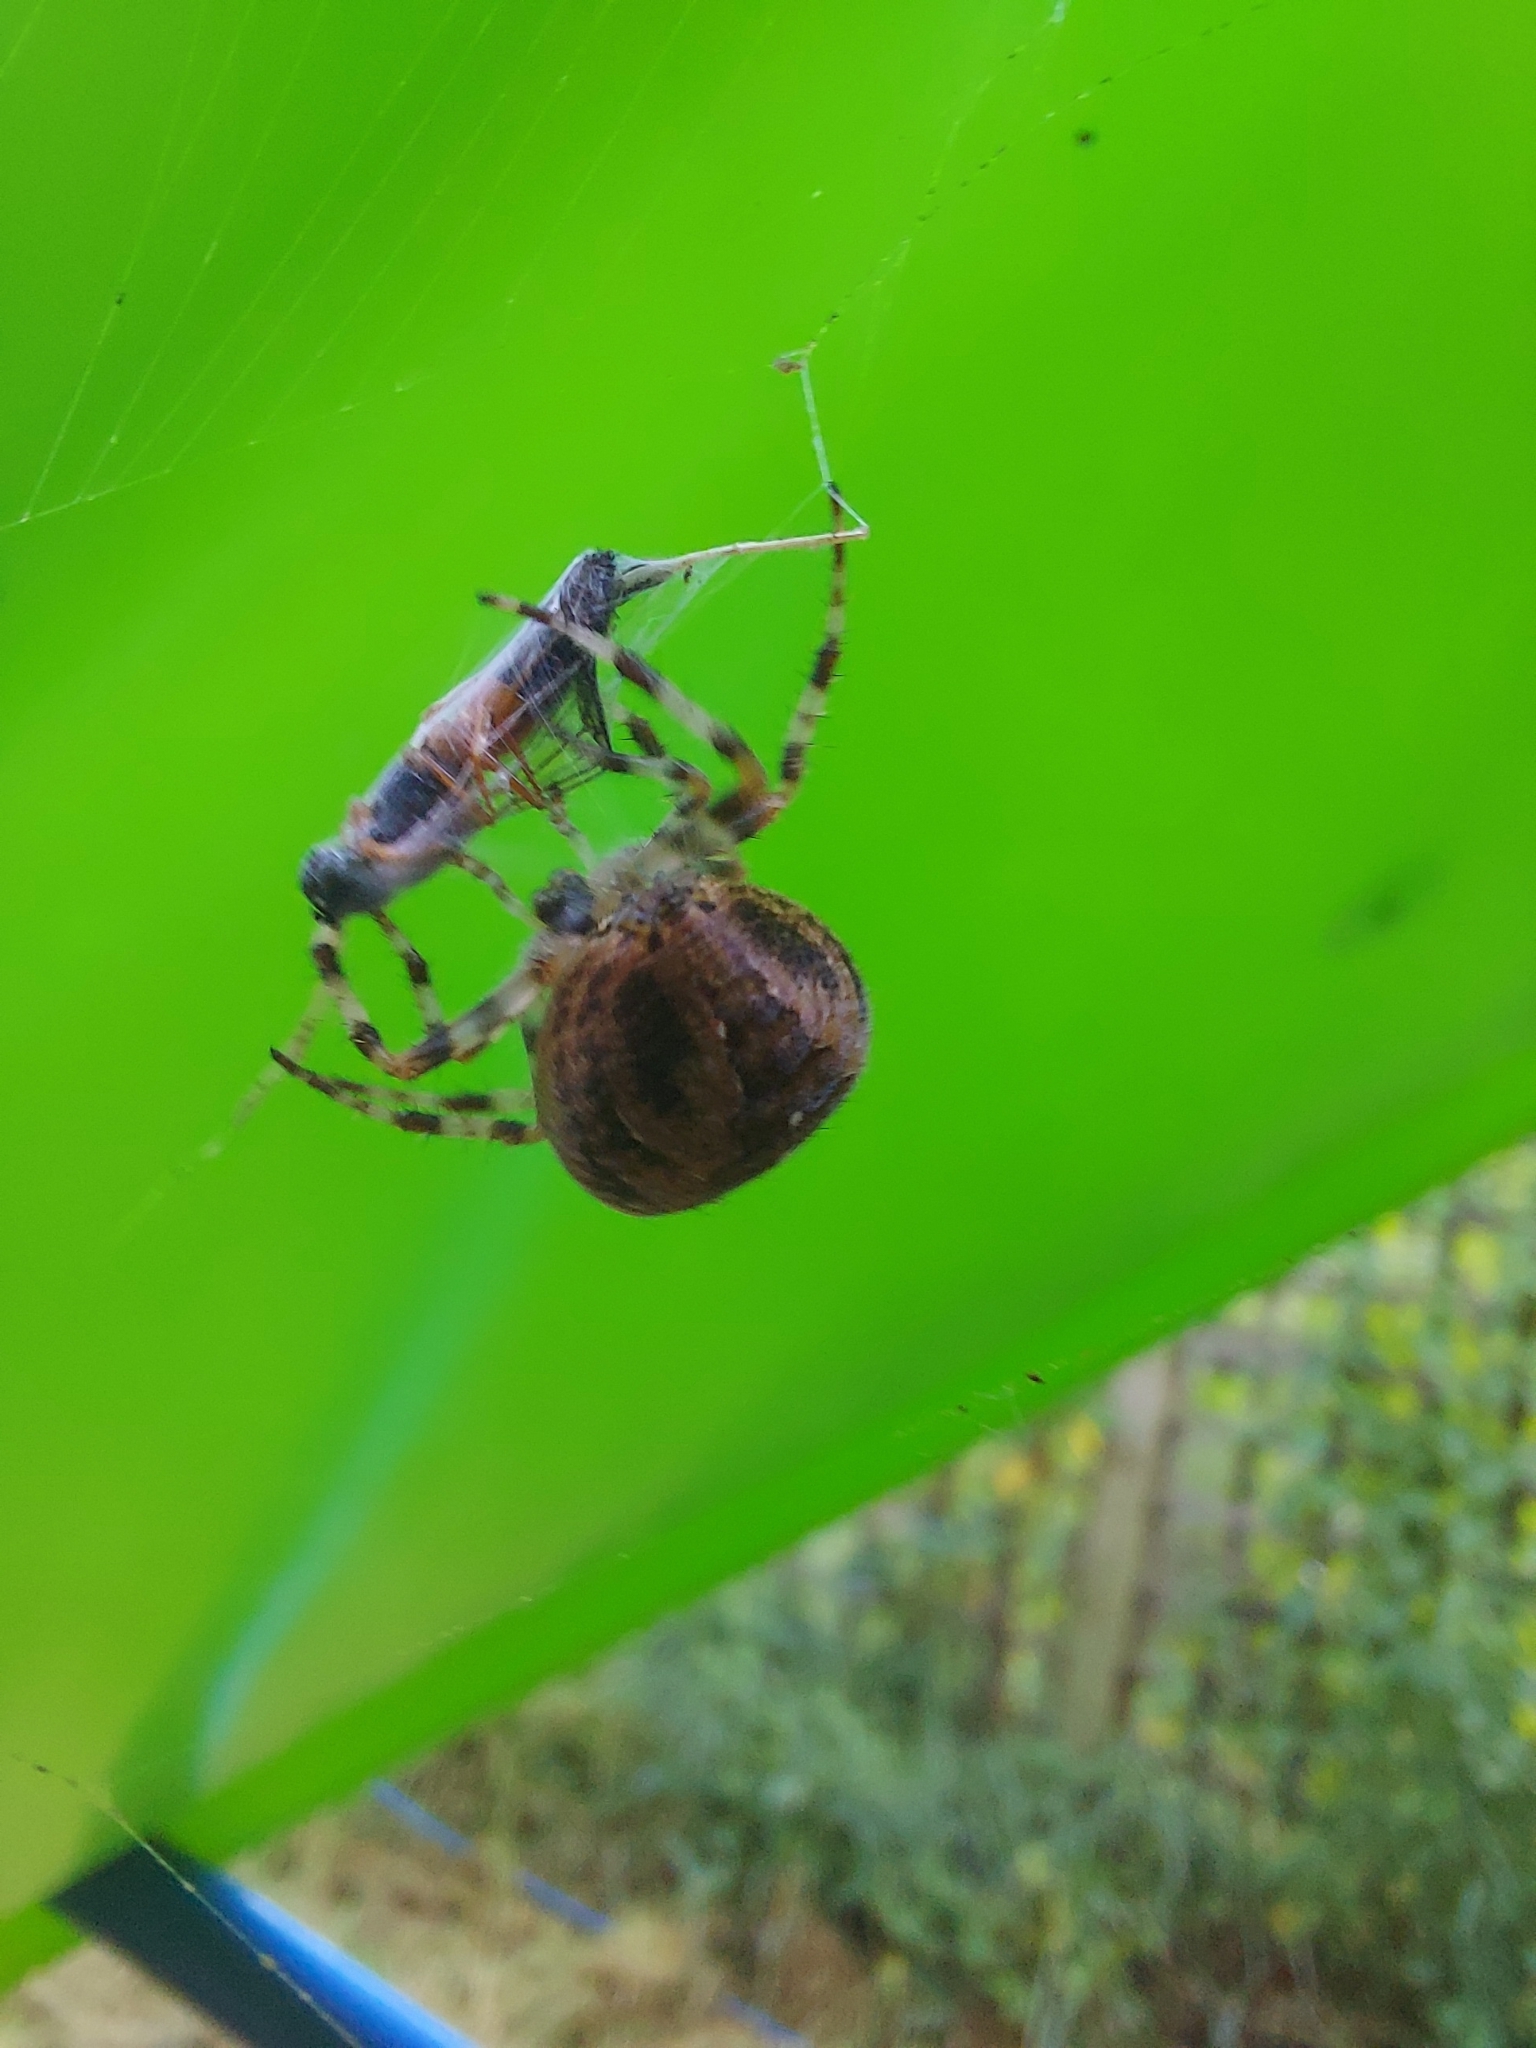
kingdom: Animalia
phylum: Arthropoda
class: Insecta
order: Diptera
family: Stratiomyidae
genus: Sargus
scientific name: Sargus bipunctatus
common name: Twin-spot centurion
